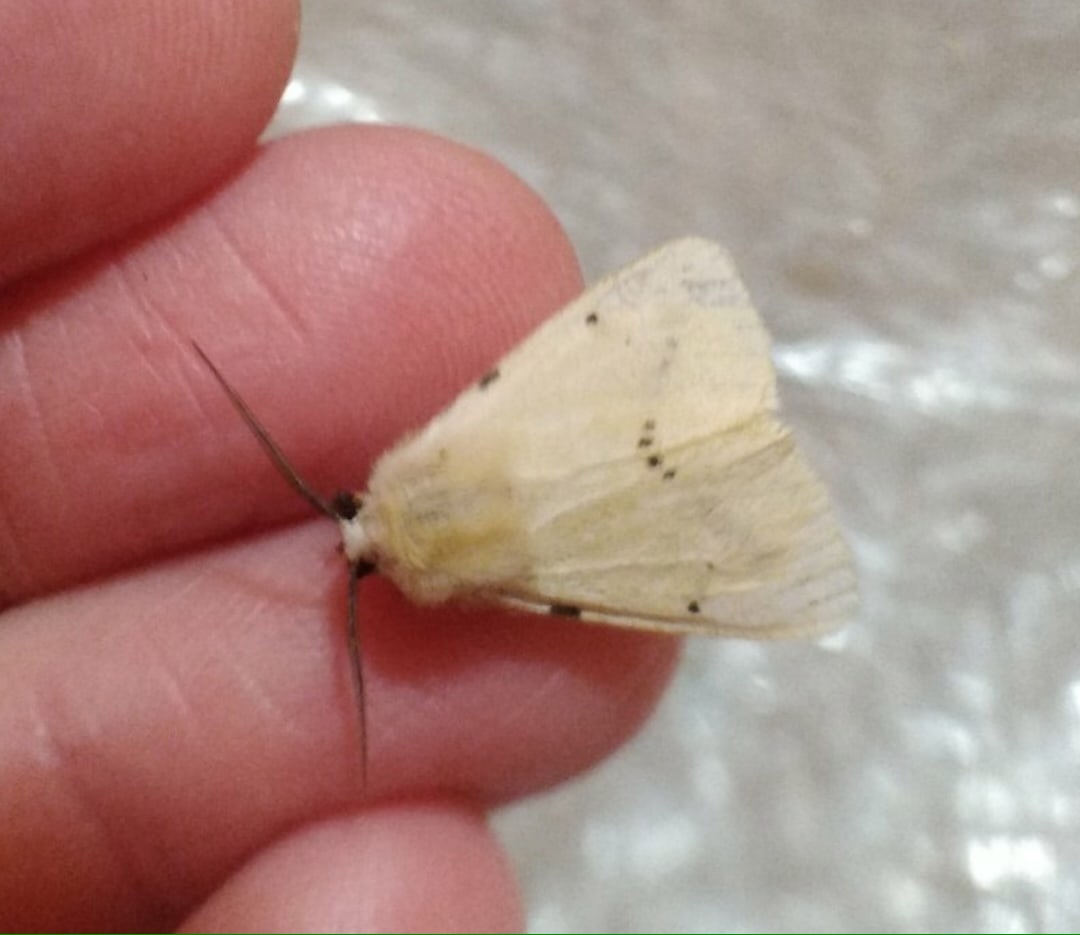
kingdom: Animalia
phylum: Arthropoda
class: Insecta
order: Lepidoptera
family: Erebidae
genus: Spilarctia
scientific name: Spilarctia lutea
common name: Buff ermine
